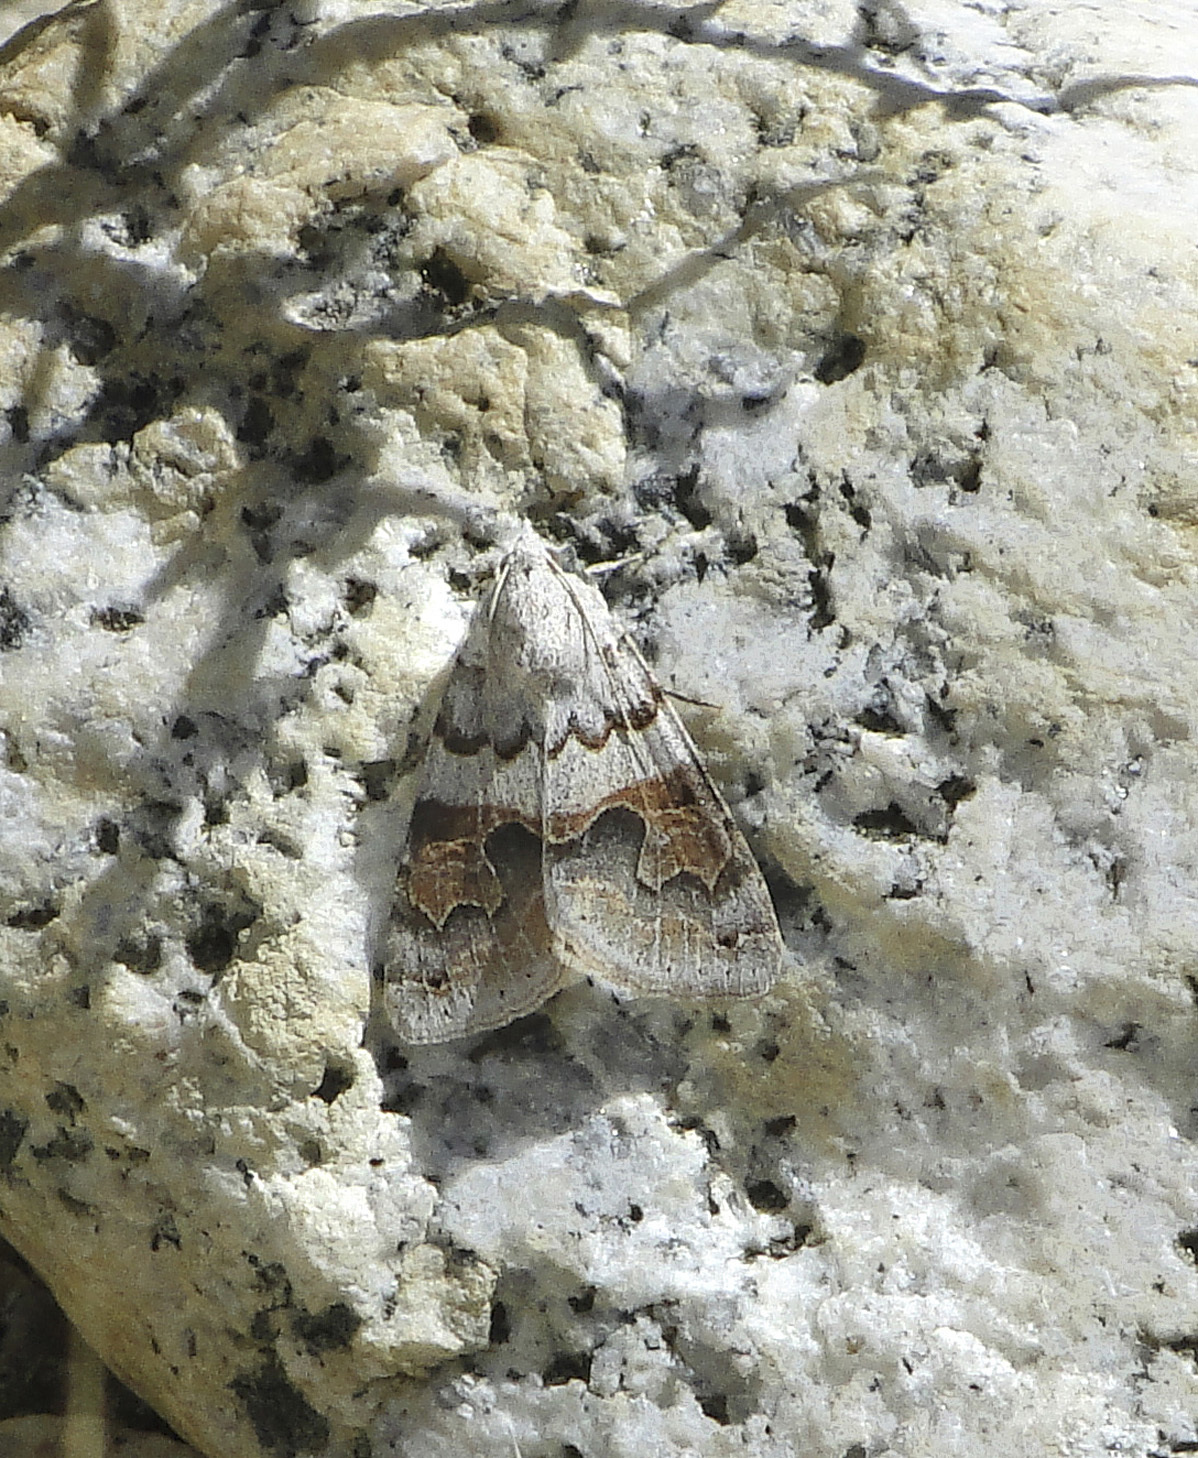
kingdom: Animalia
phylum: Arthropoda
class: Insecta
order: Lepidoptera
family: Erebidae
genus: Drasteria
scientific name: Drasteria scrupulosa
